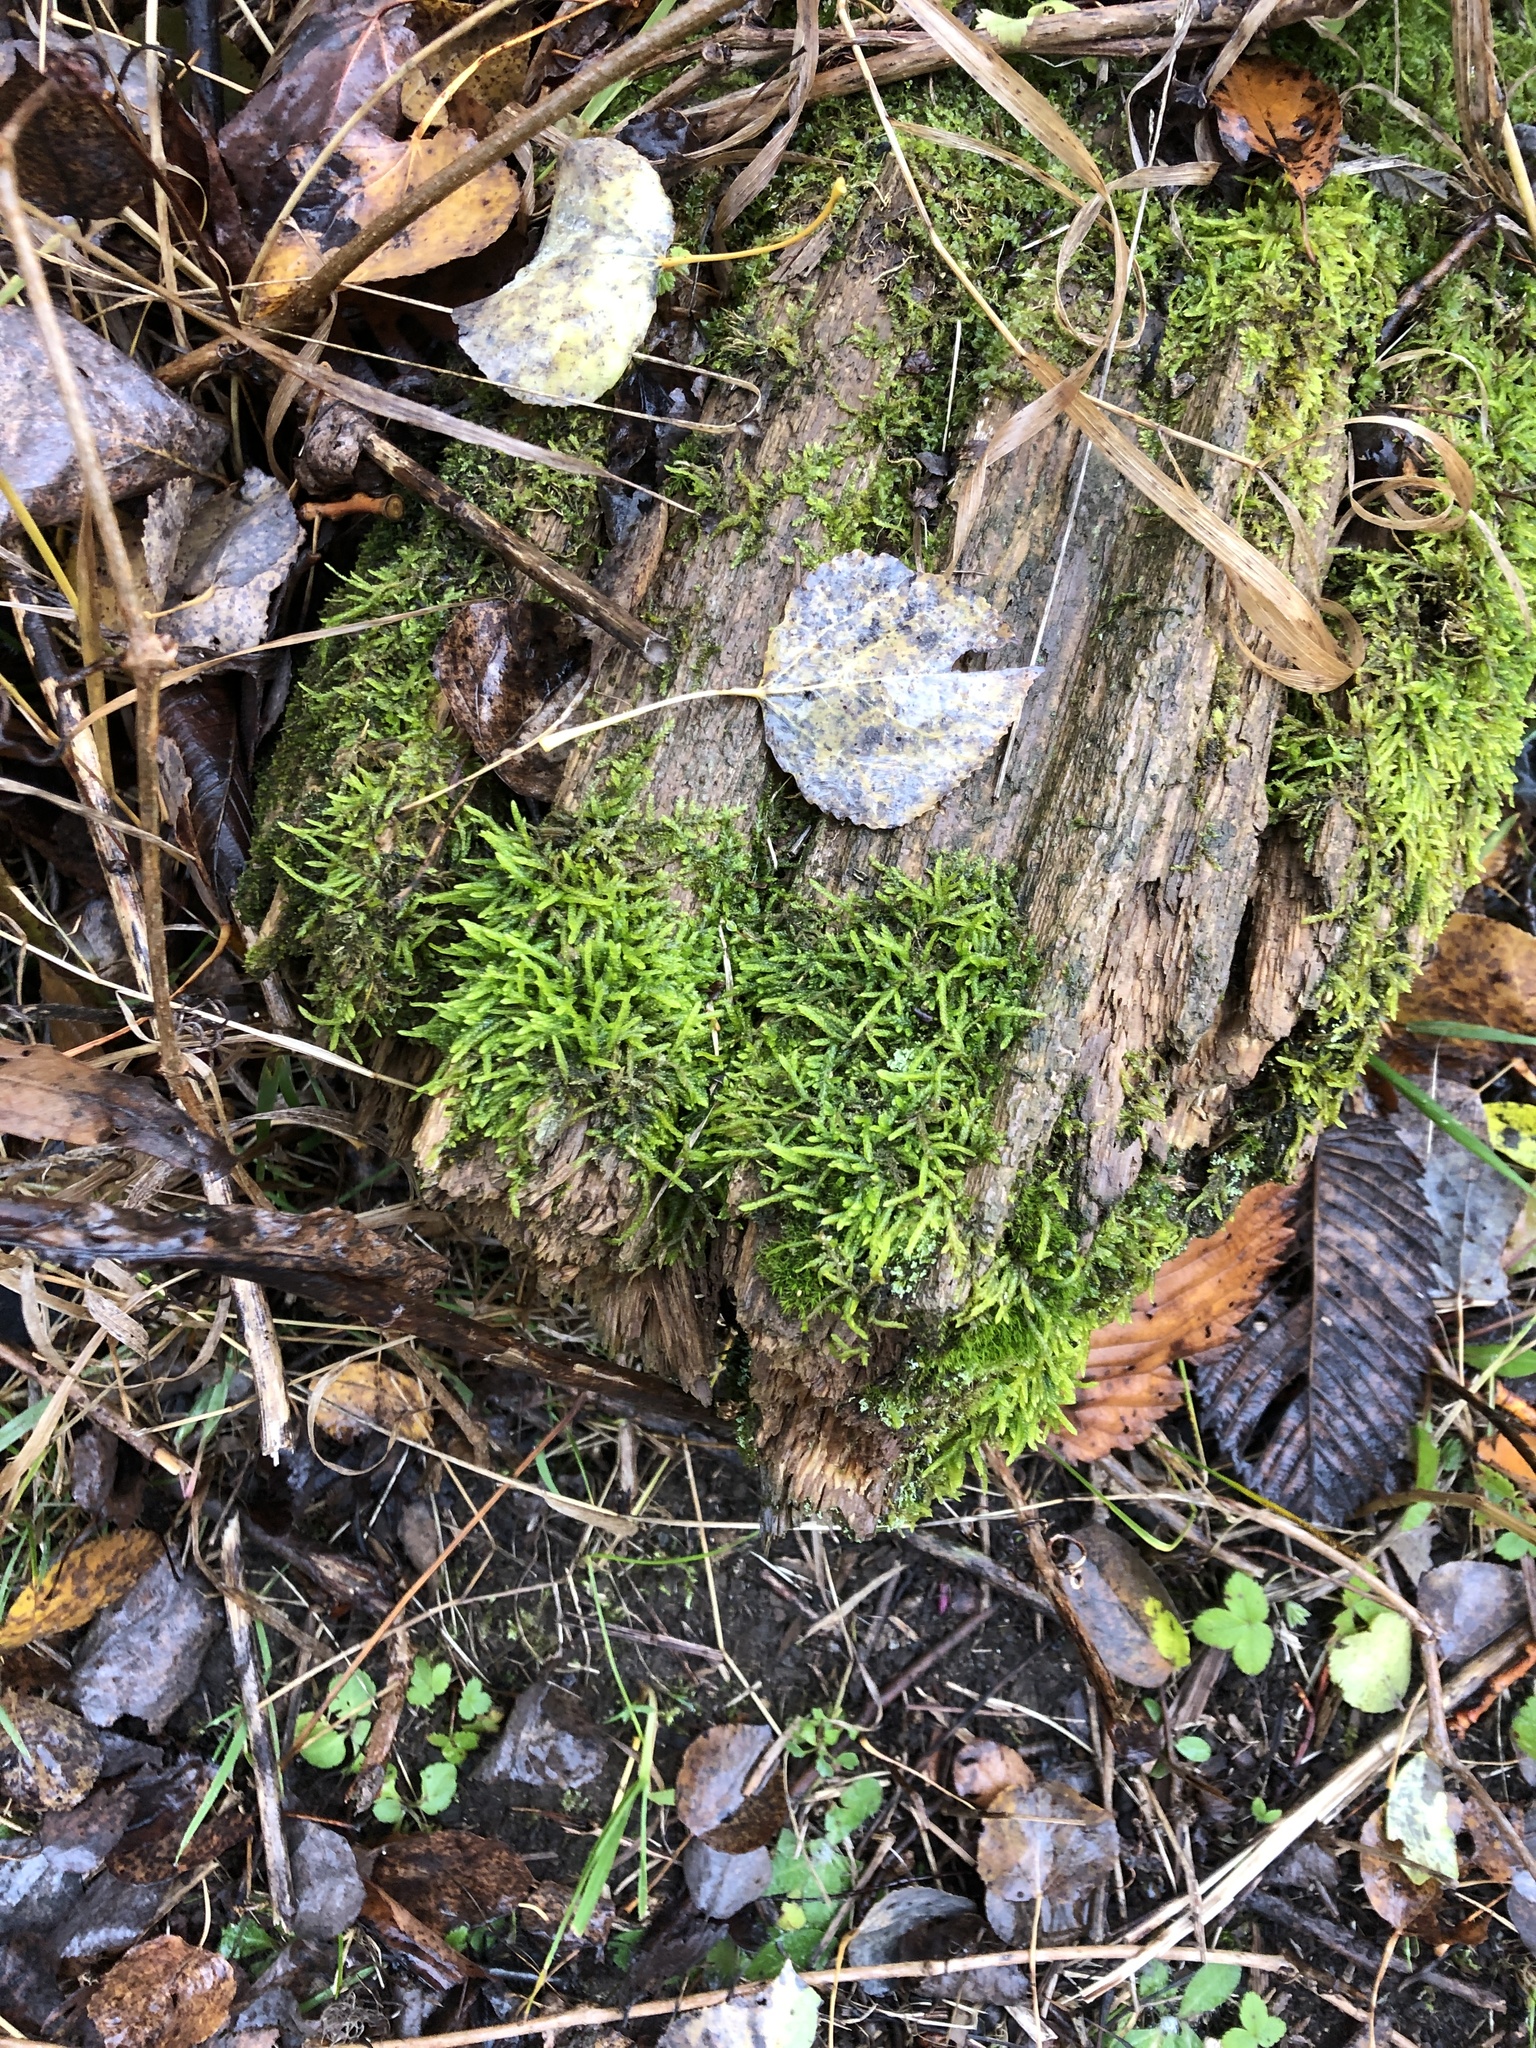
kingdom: Plantae
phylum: Bryophyta
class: Bryopsida
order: Hypnales
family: Entodontaceae
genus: Entodon
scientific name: Entodon seductrix
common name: Round-stemmed entodon moss
